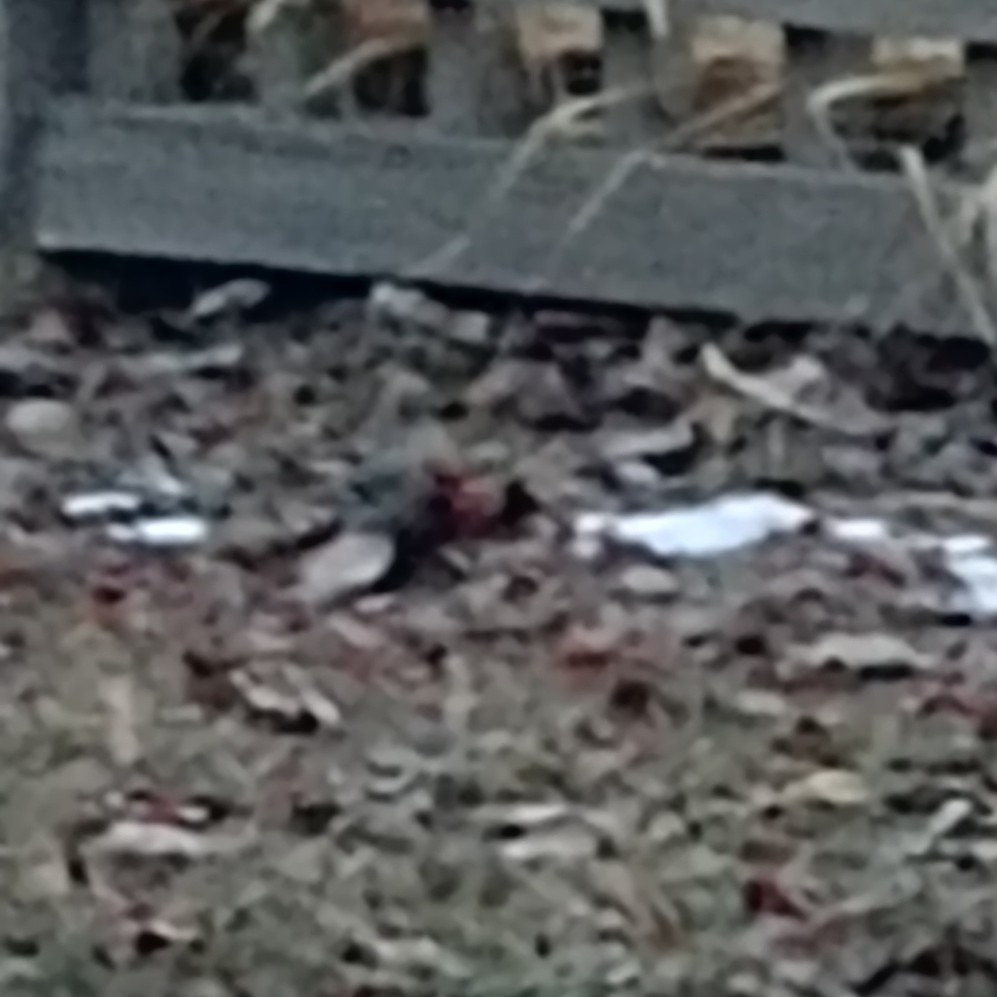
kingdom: Animalia
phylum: Chordata
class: Aves
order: Passeriformes
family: Bombycillidae
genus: Bombycilla
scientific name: Bombycilla garrulus
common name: Bohemian waxwing
